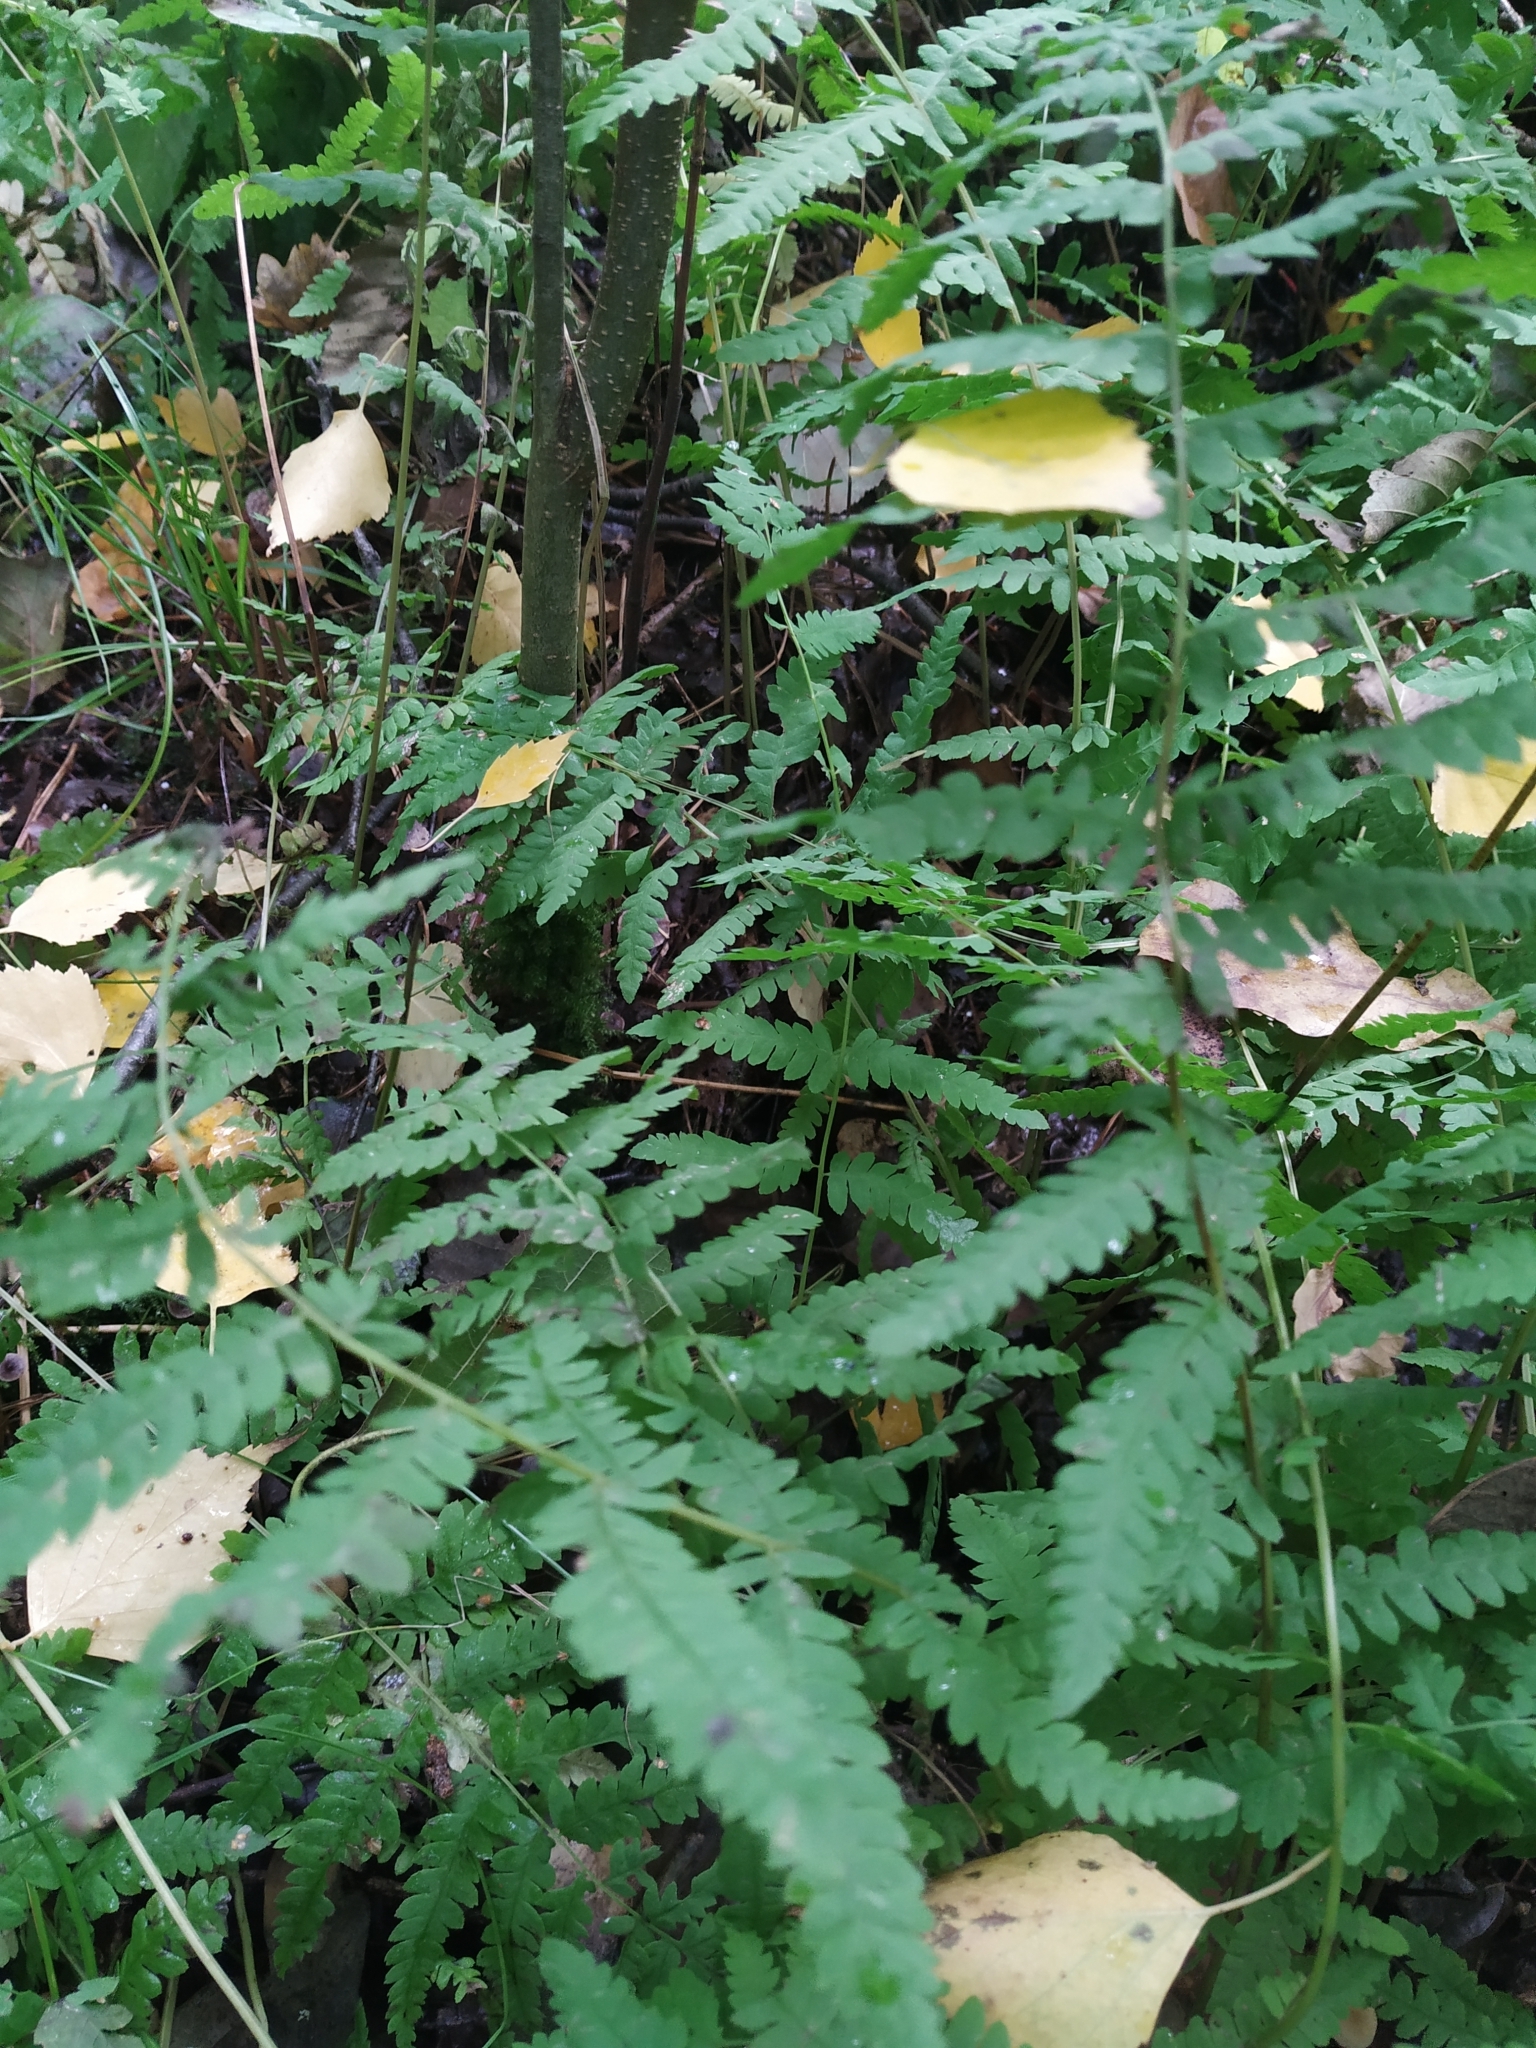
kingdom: Plantae
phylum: Tracheophyta
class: Polypodiopsida
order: Polypodiales
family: Thelypteridaceae
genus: Thelypteris
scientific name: Thelypteris palustris
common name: Marsh fern
